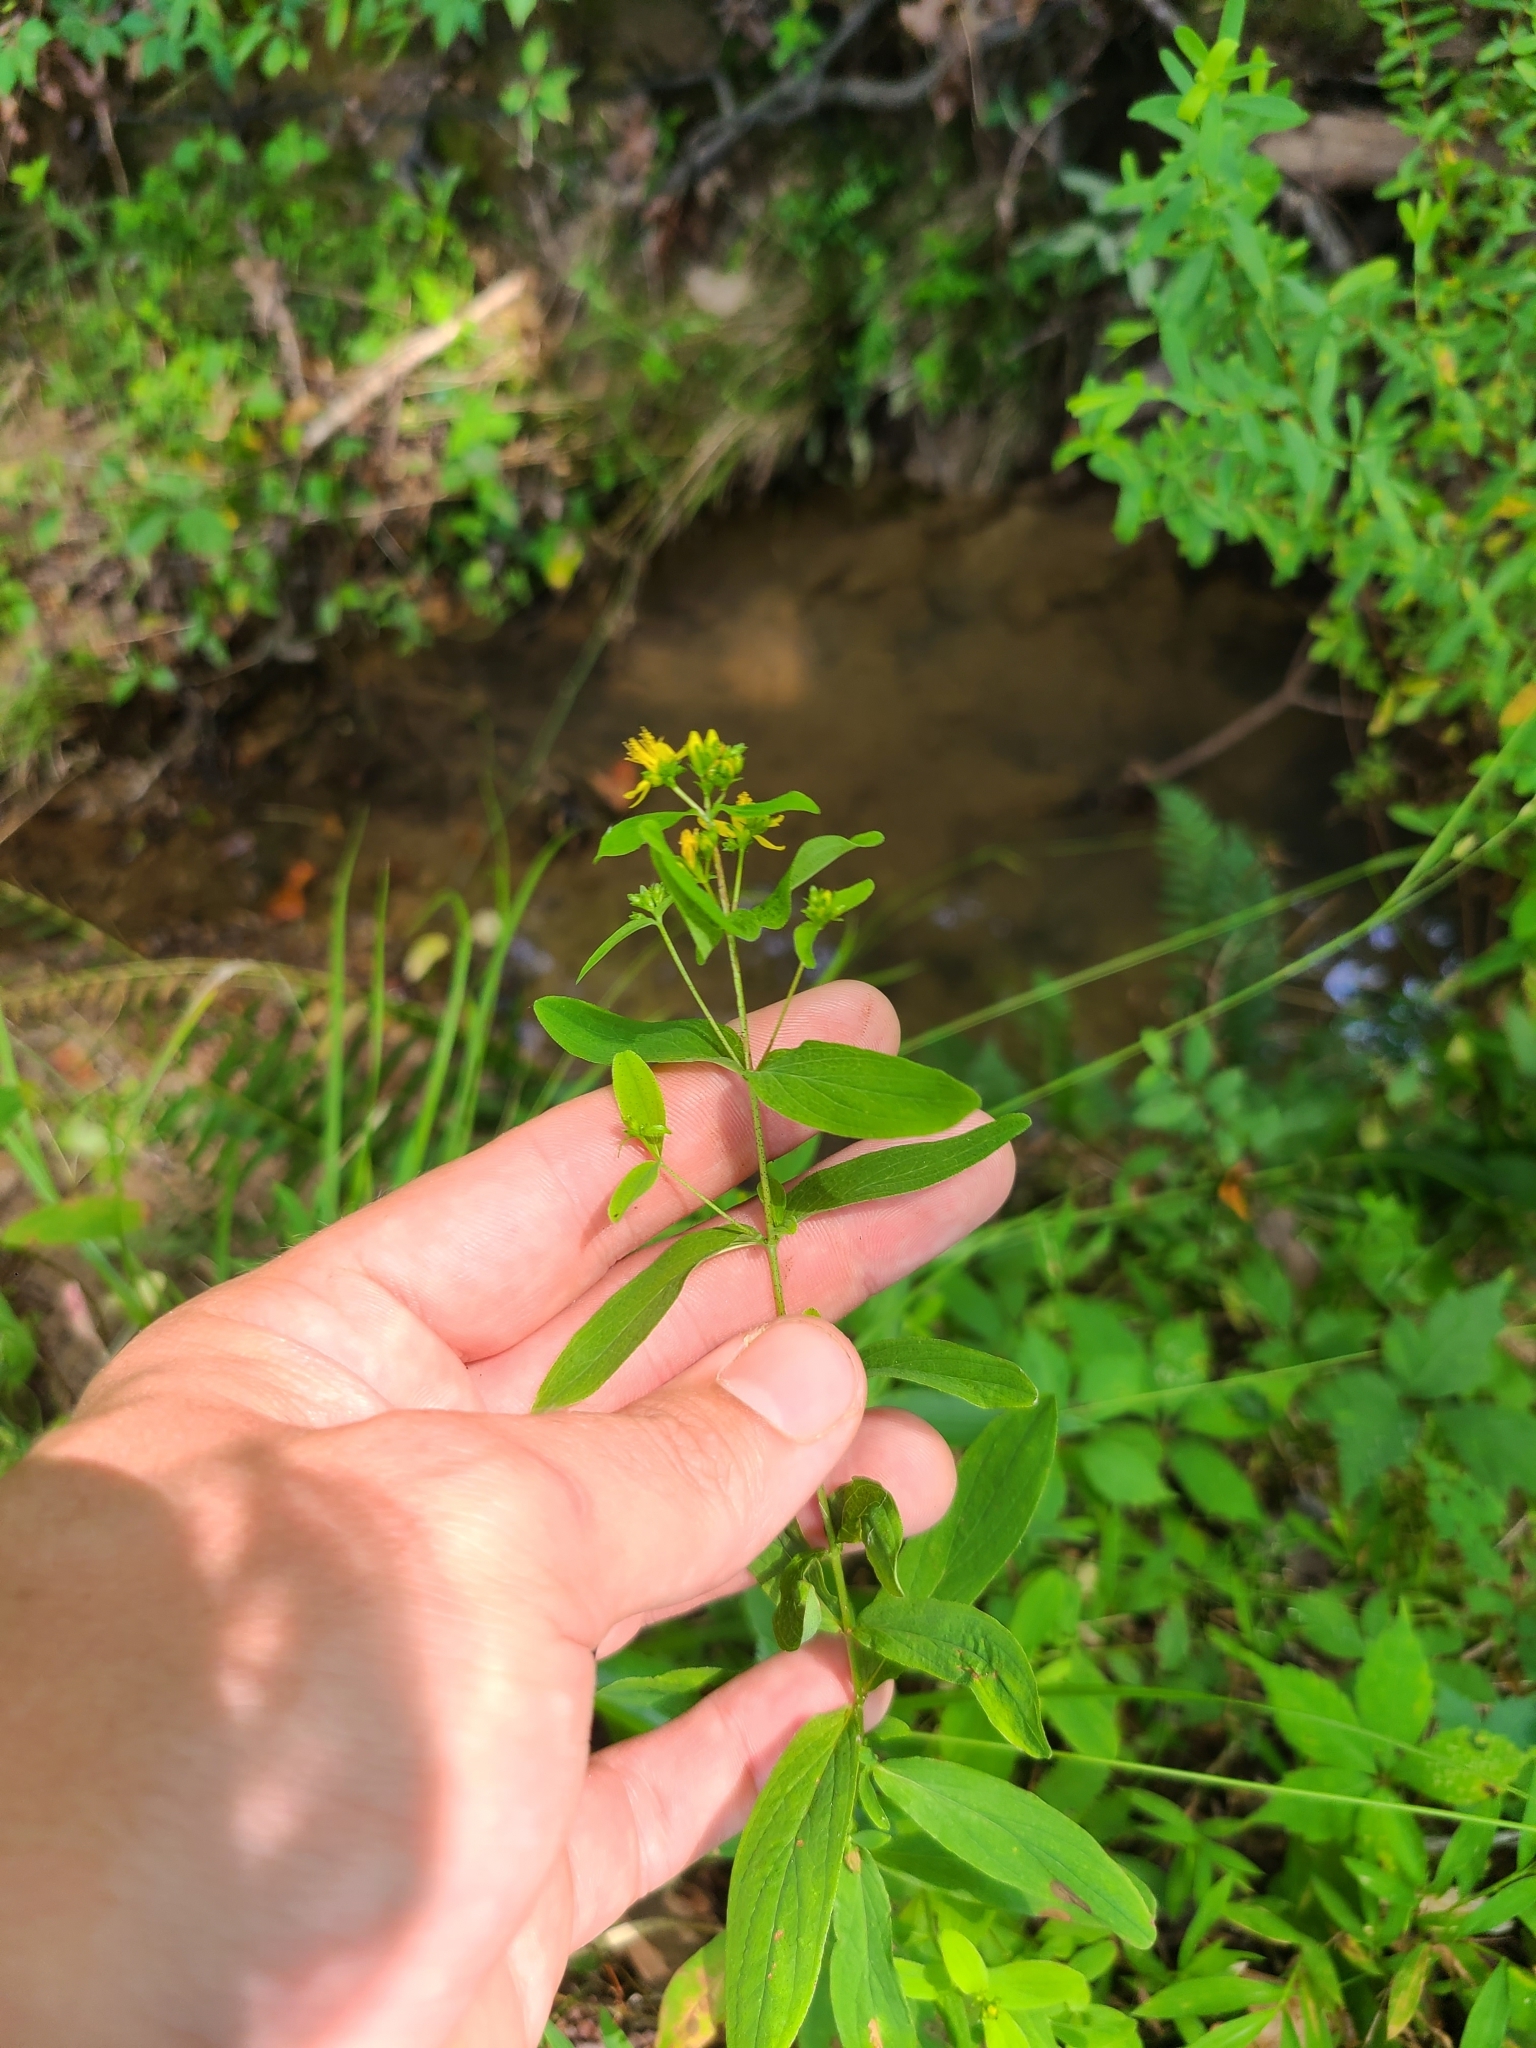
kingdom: Plantae
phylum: Tracheophyta
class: Magnoliopsida
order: Malpighiales
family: Hypericaceae
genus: Hypericum
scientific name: Hypericum punctatum
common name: Spotted st. john's-wort
